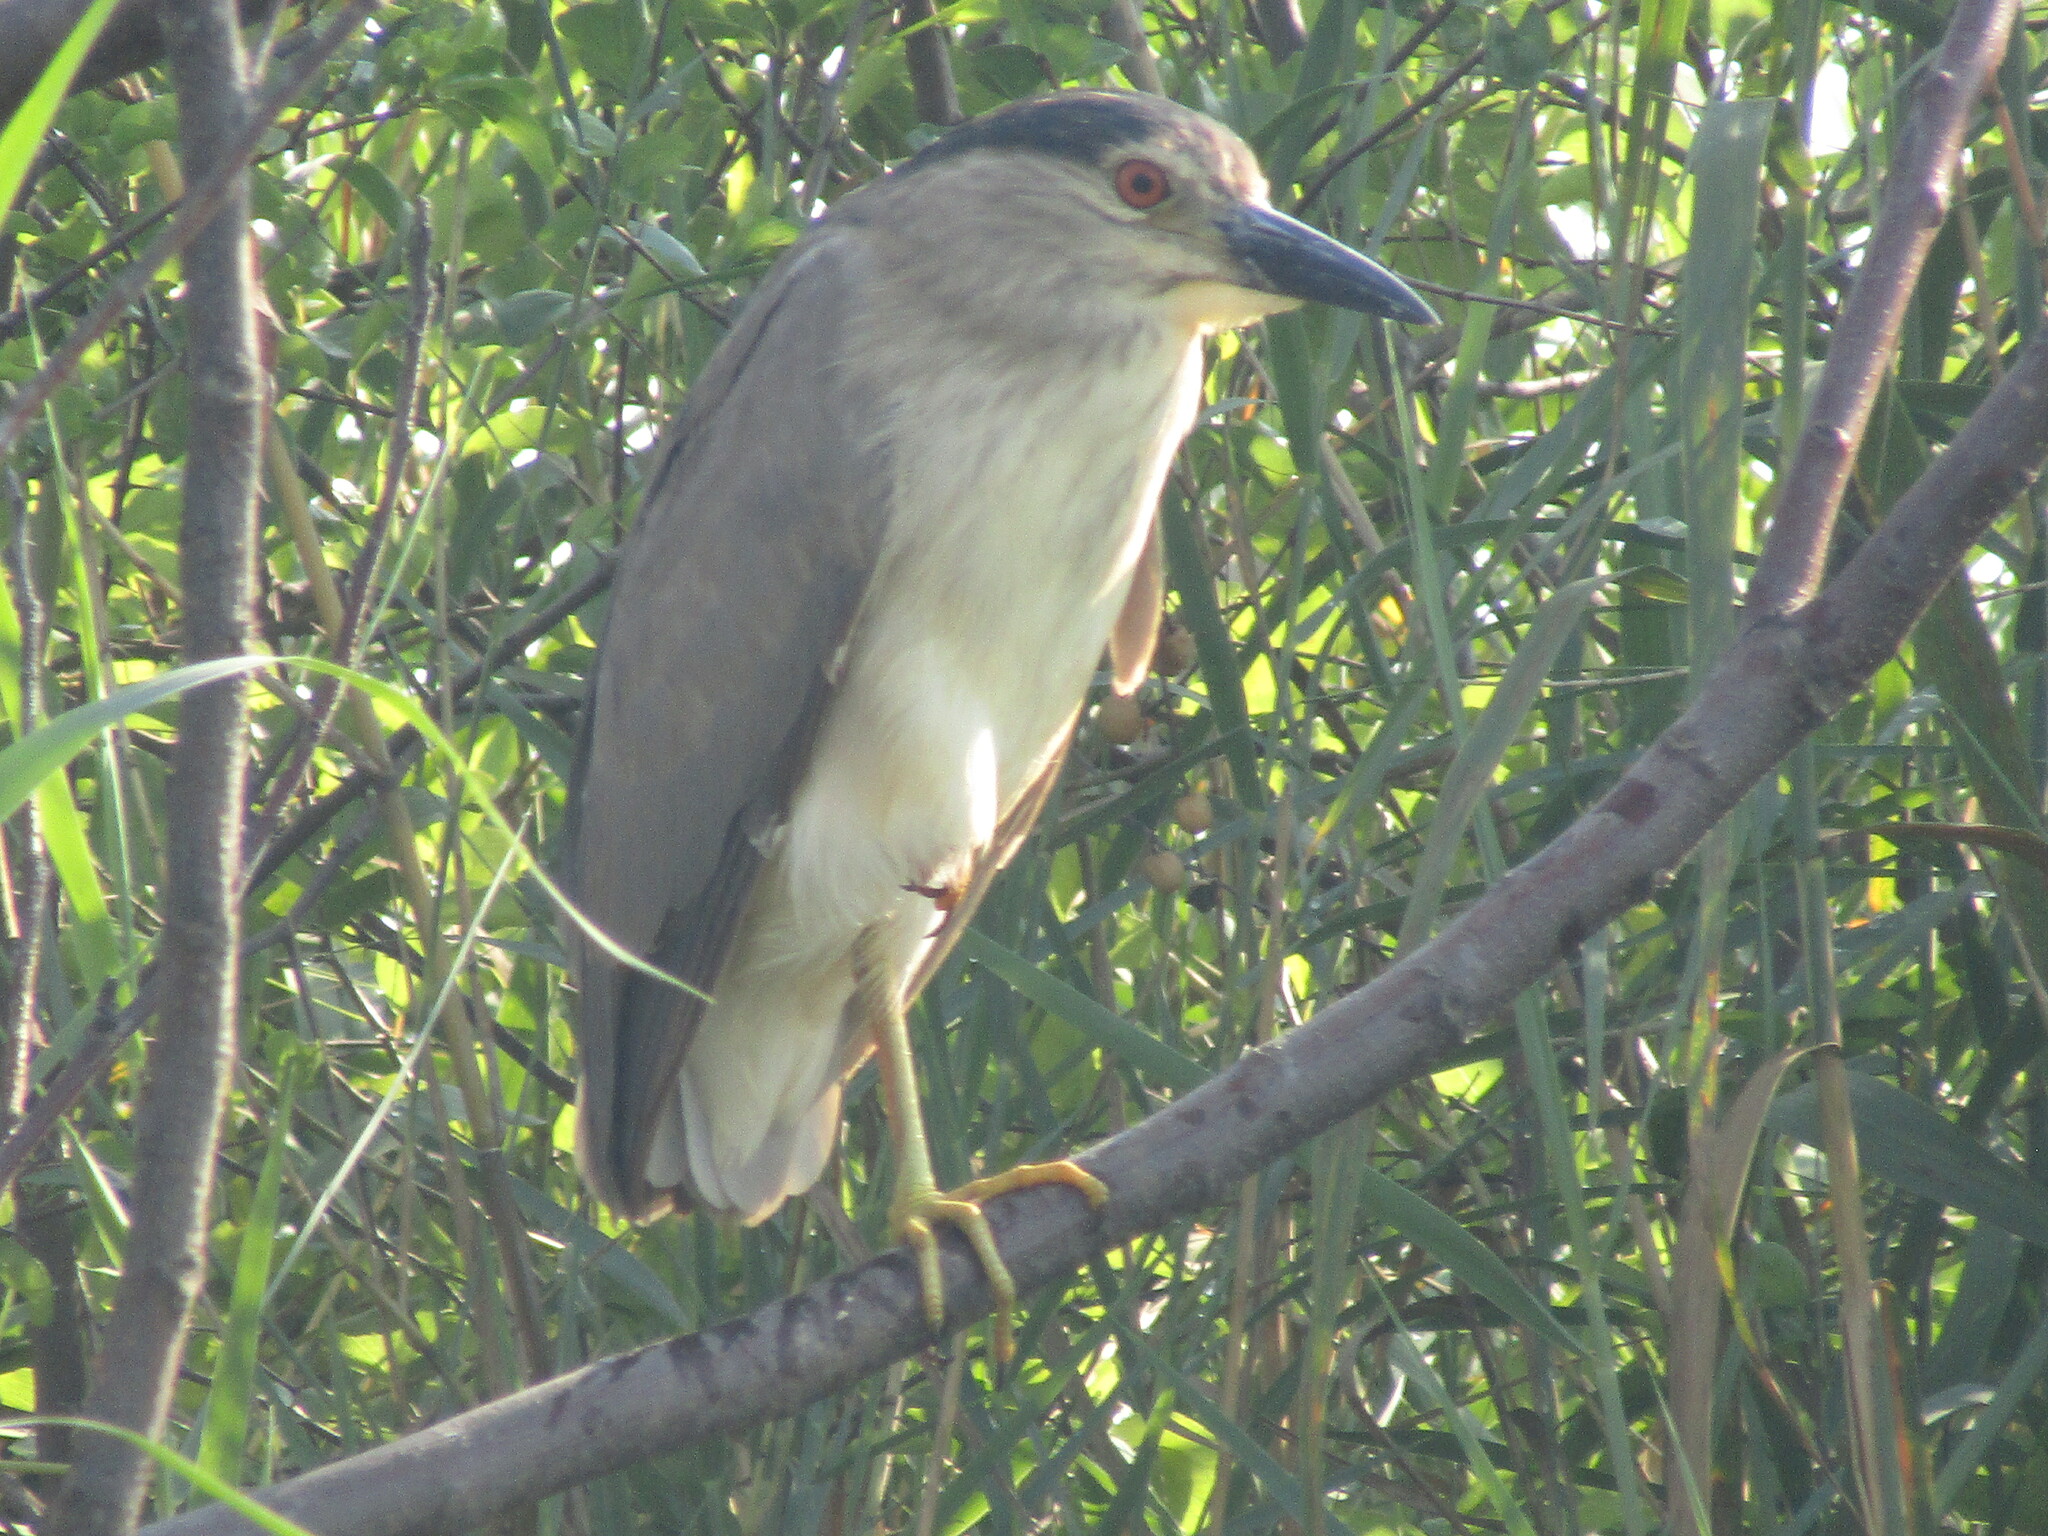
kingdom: Animalia
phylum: Chordata
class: Aves
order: Pelecaniformes
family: Ardeidae
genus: Nycticorax
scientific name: Nycticorax nycticorax
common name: Black-crowned night heron
